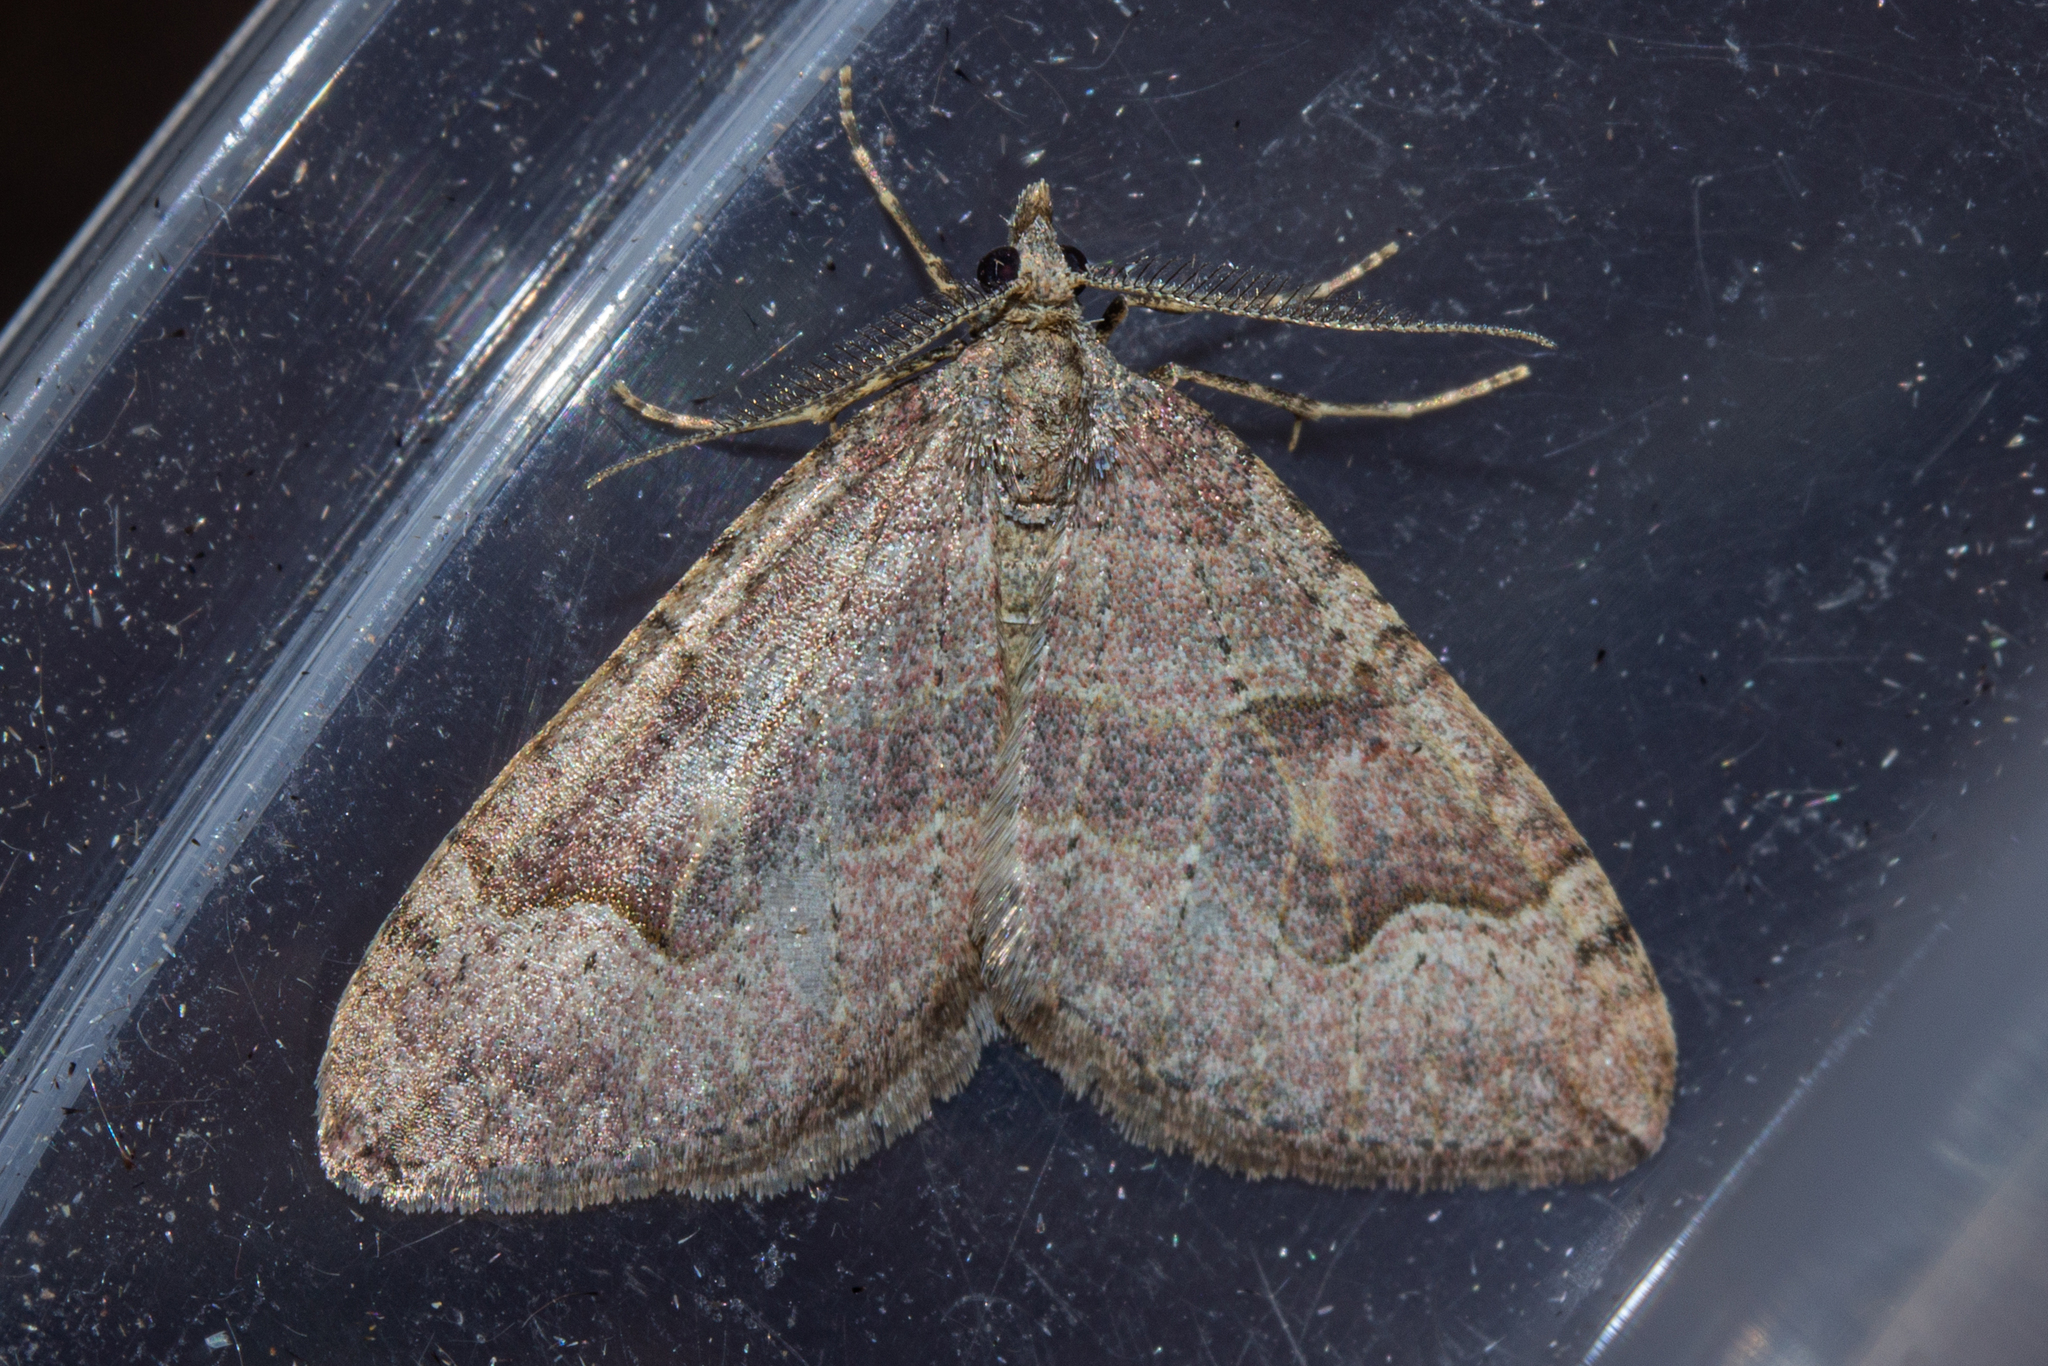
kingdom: Animalia
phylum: Arthropoda
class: Insecta
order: Lepidoptera
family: Geometridae
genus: Epyaxa
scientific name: Epyaxa rosearia
